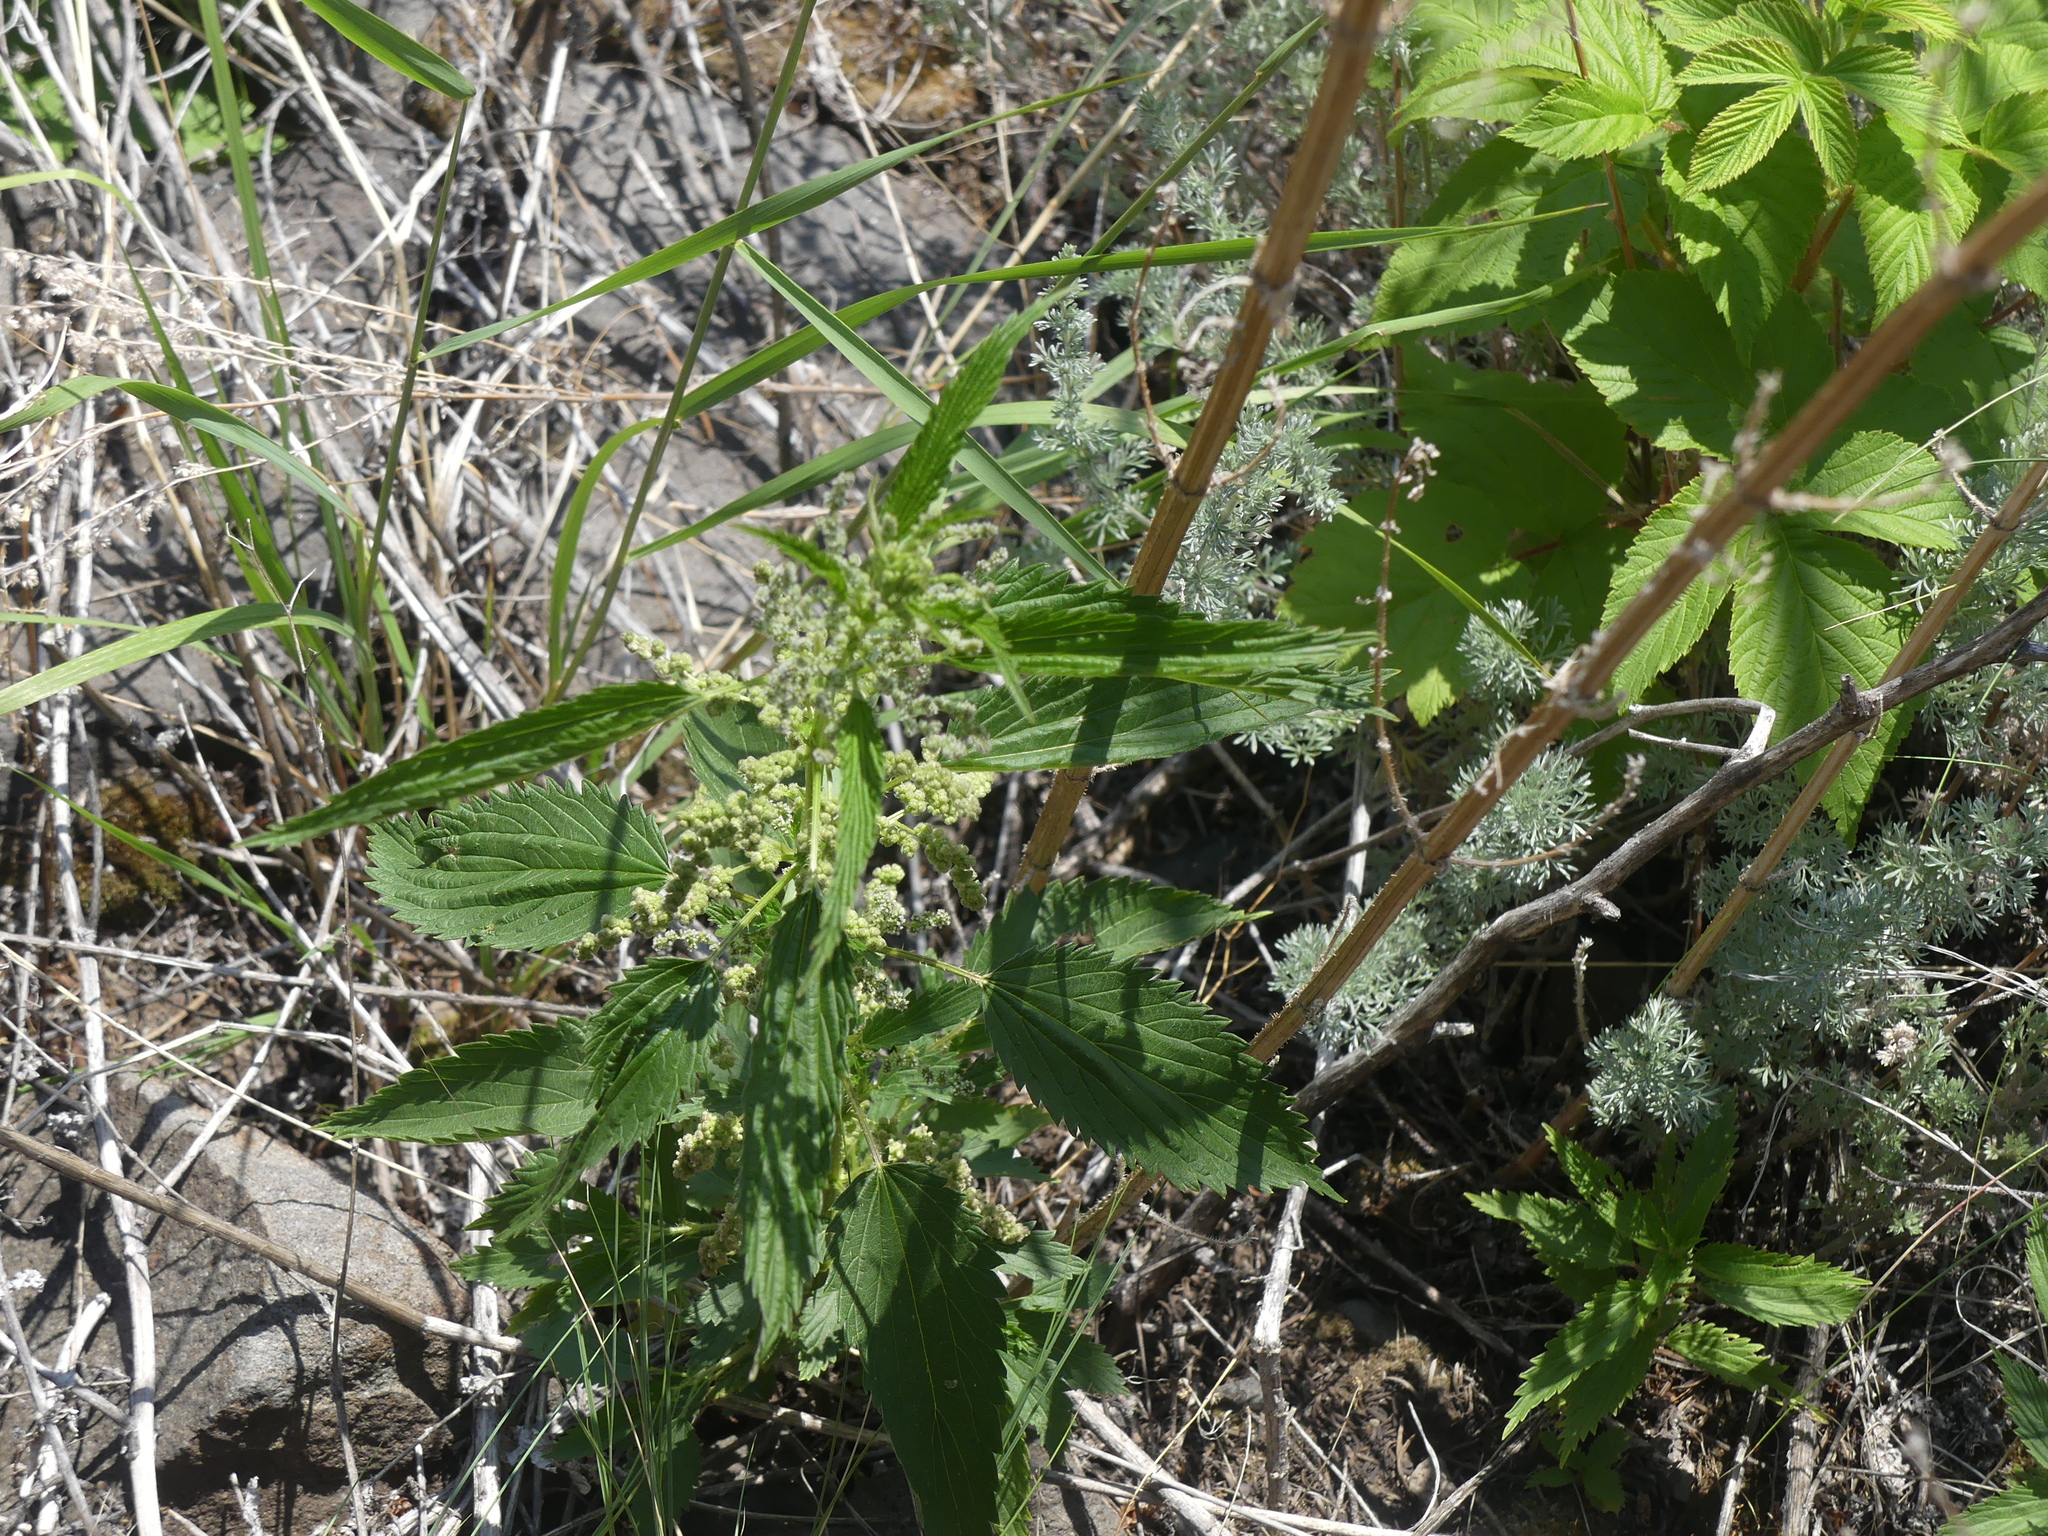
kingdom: Plantae
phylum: Tracheophyta
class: Magnoliopsida
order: Rosales
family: Urticaceae
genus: Urtica
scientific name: Urtica gracilis
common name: Slender stinging nettle
